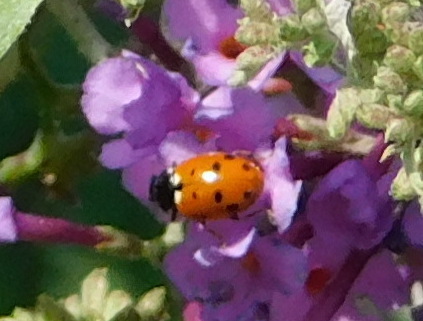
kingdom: Animalia
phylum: Arthropoda
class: Insecta
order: Coleoptera
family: Coccinellidae
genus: Hippodamia
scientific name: Hippodamia variegata
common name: Ladybird beetle
